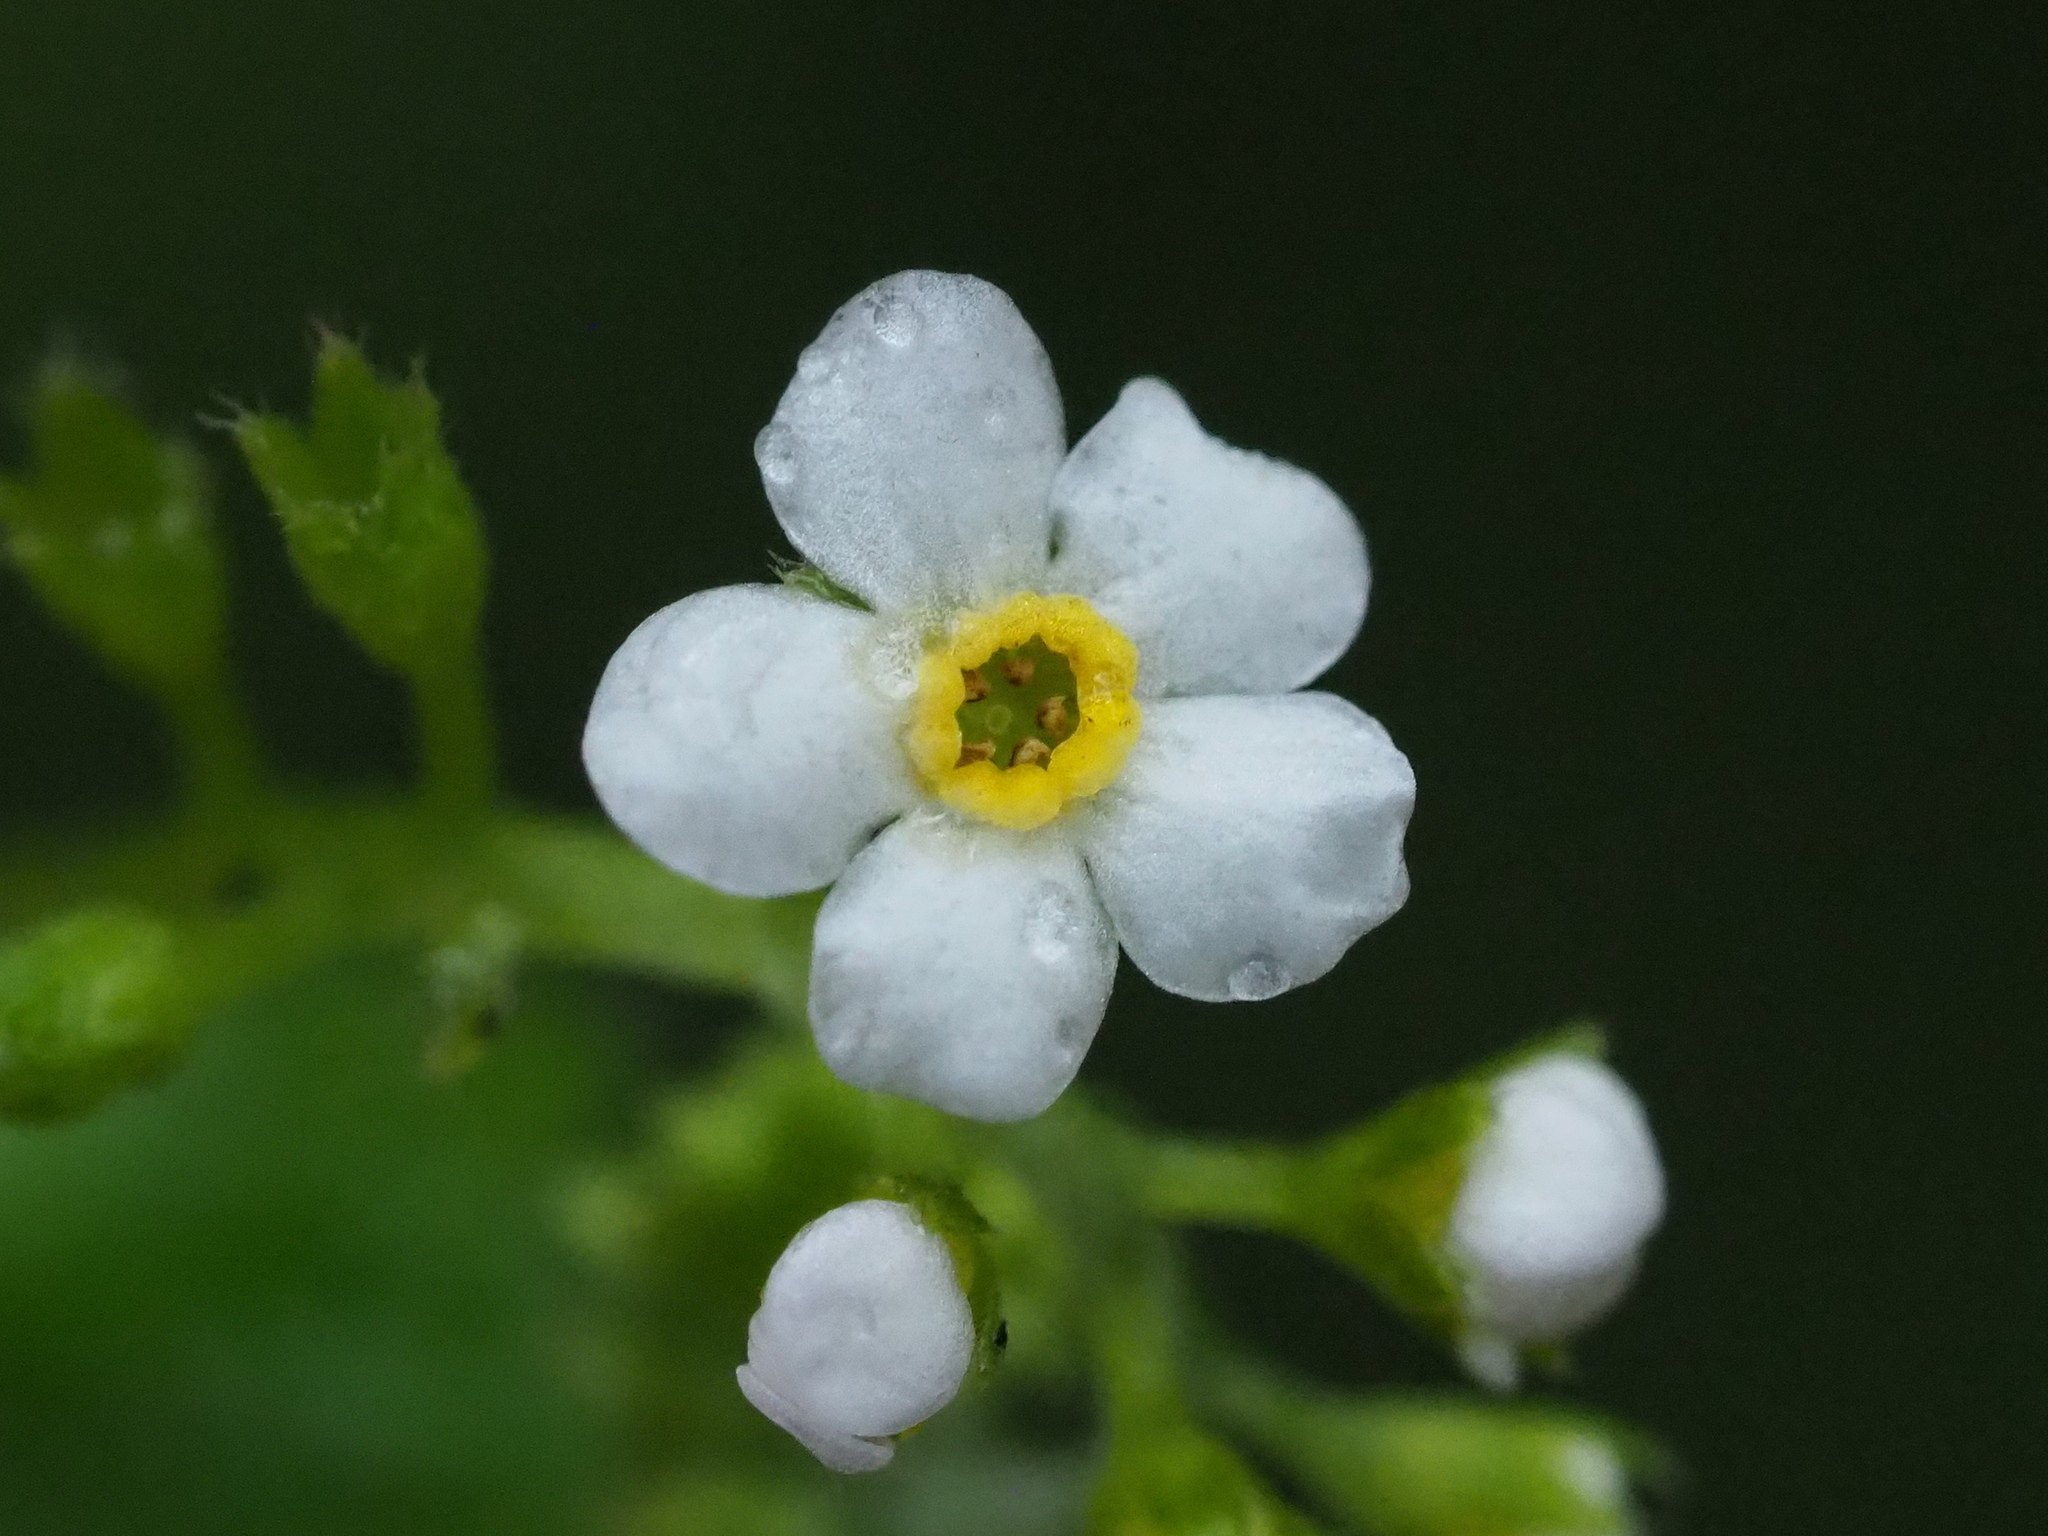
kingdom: Plantae
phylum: Tracheophyta
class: Magnoliopsida
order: Boraginales
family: Boraginaceae
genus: Trigonotis
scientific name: Trigonotis formosana
